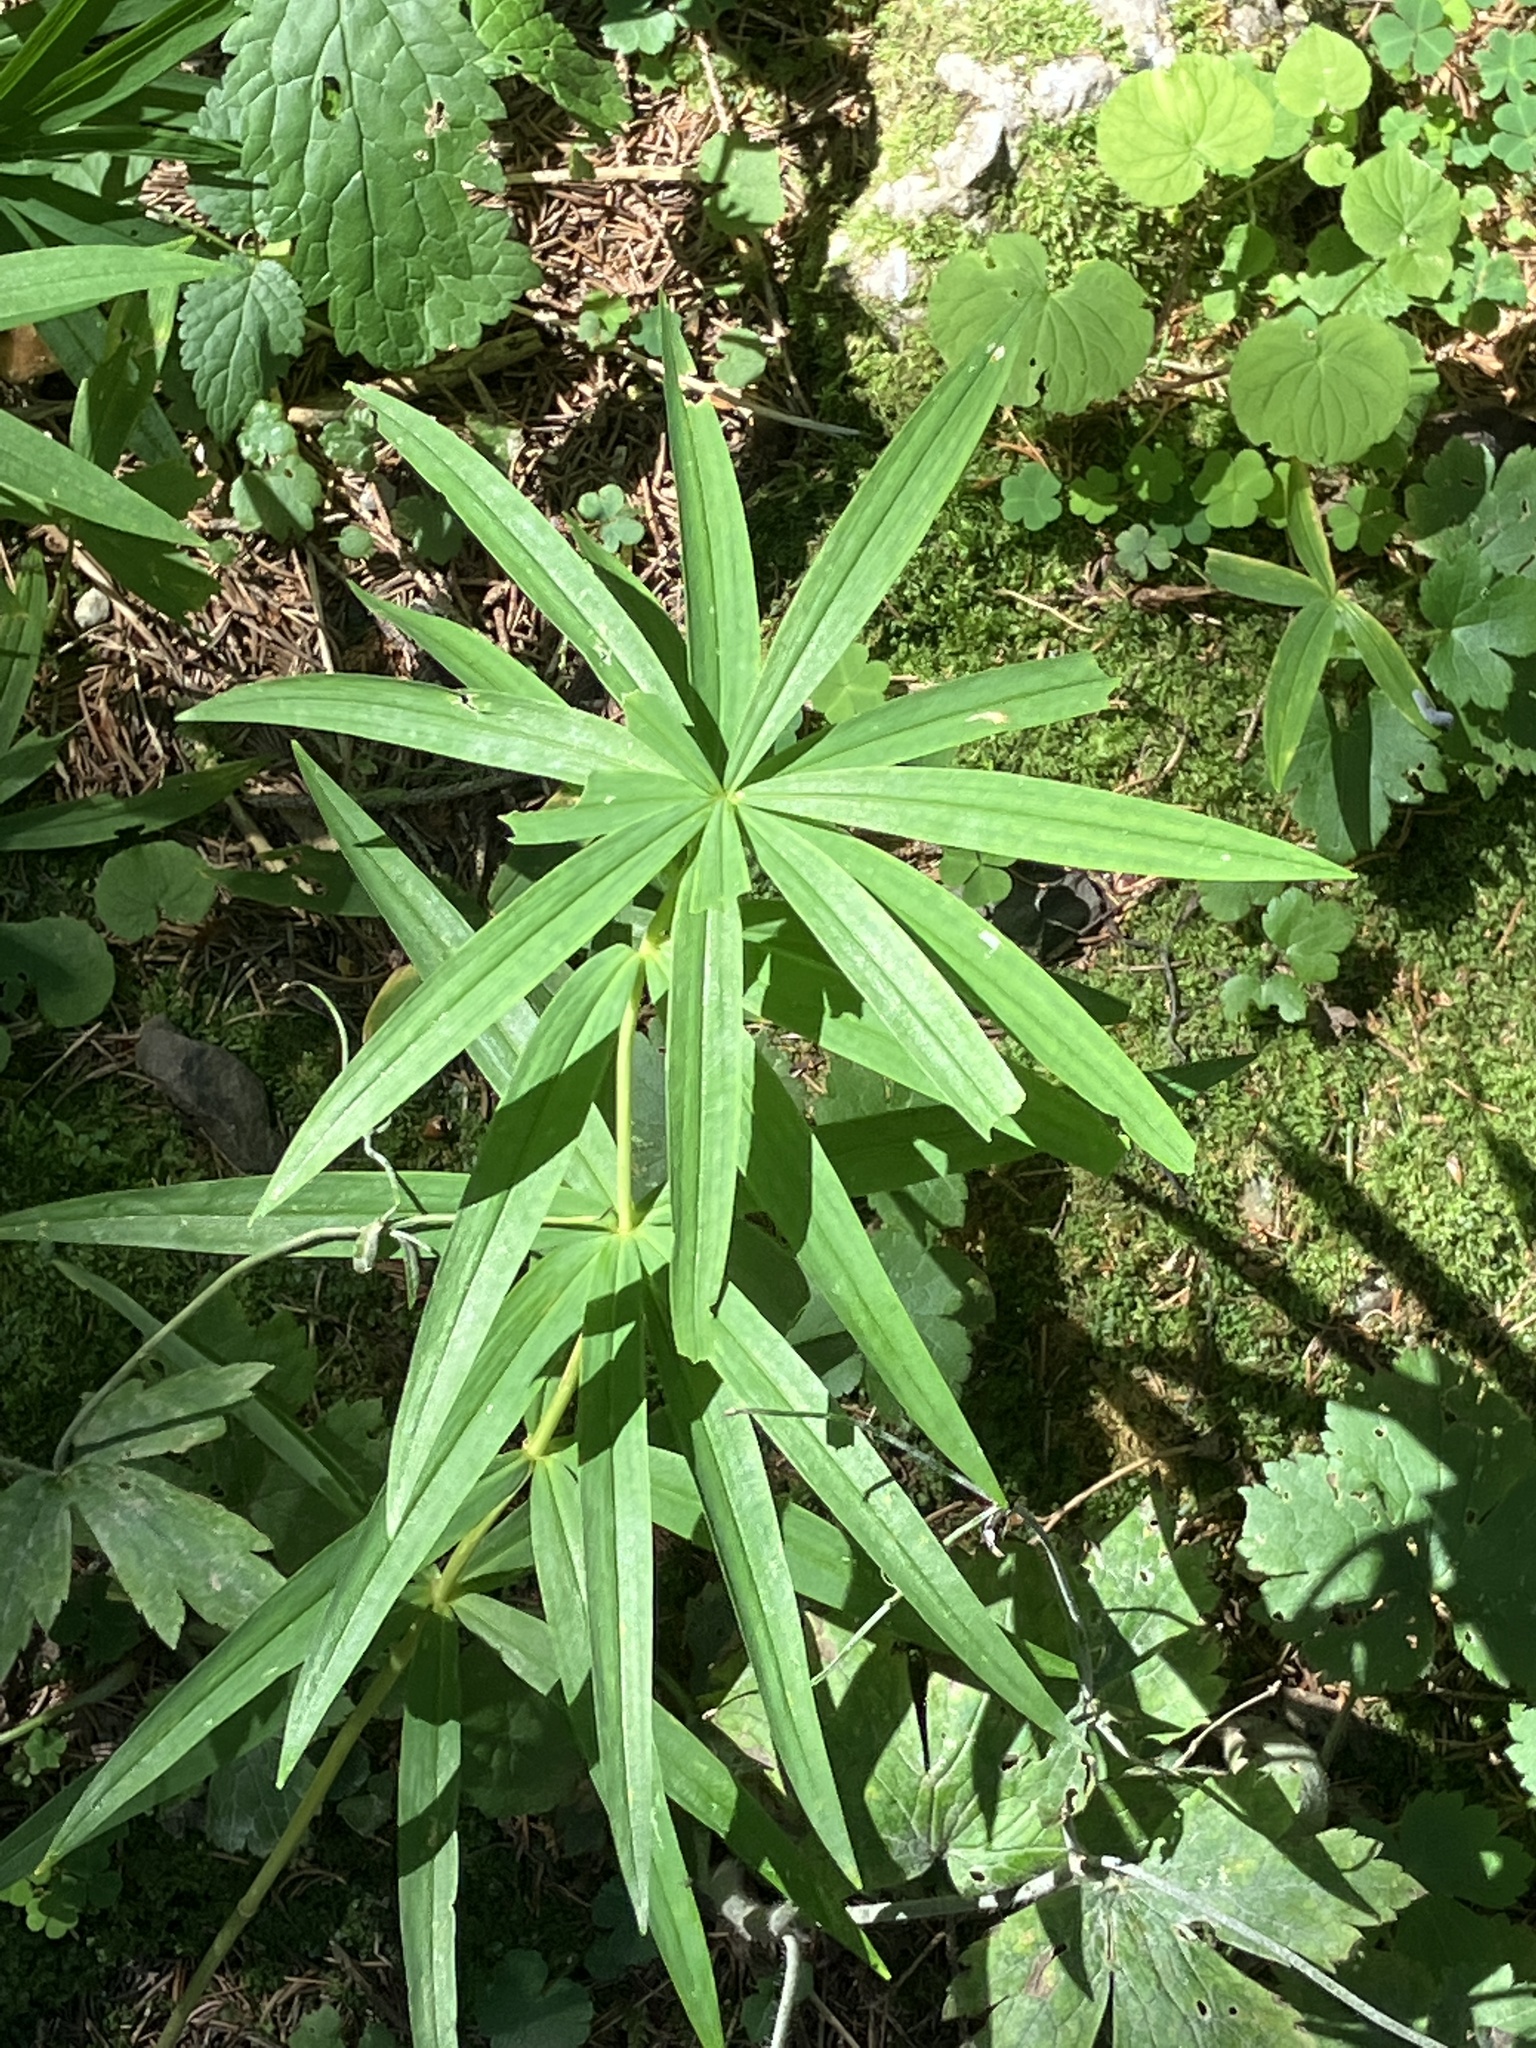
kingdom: Plantae
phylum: Tracheophyta
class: Liliopsida
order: Asparagales
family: Asparagaceae
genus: Polygonatum
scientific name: Polygonatum verticillatum
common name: Whorled solomon's-seal
